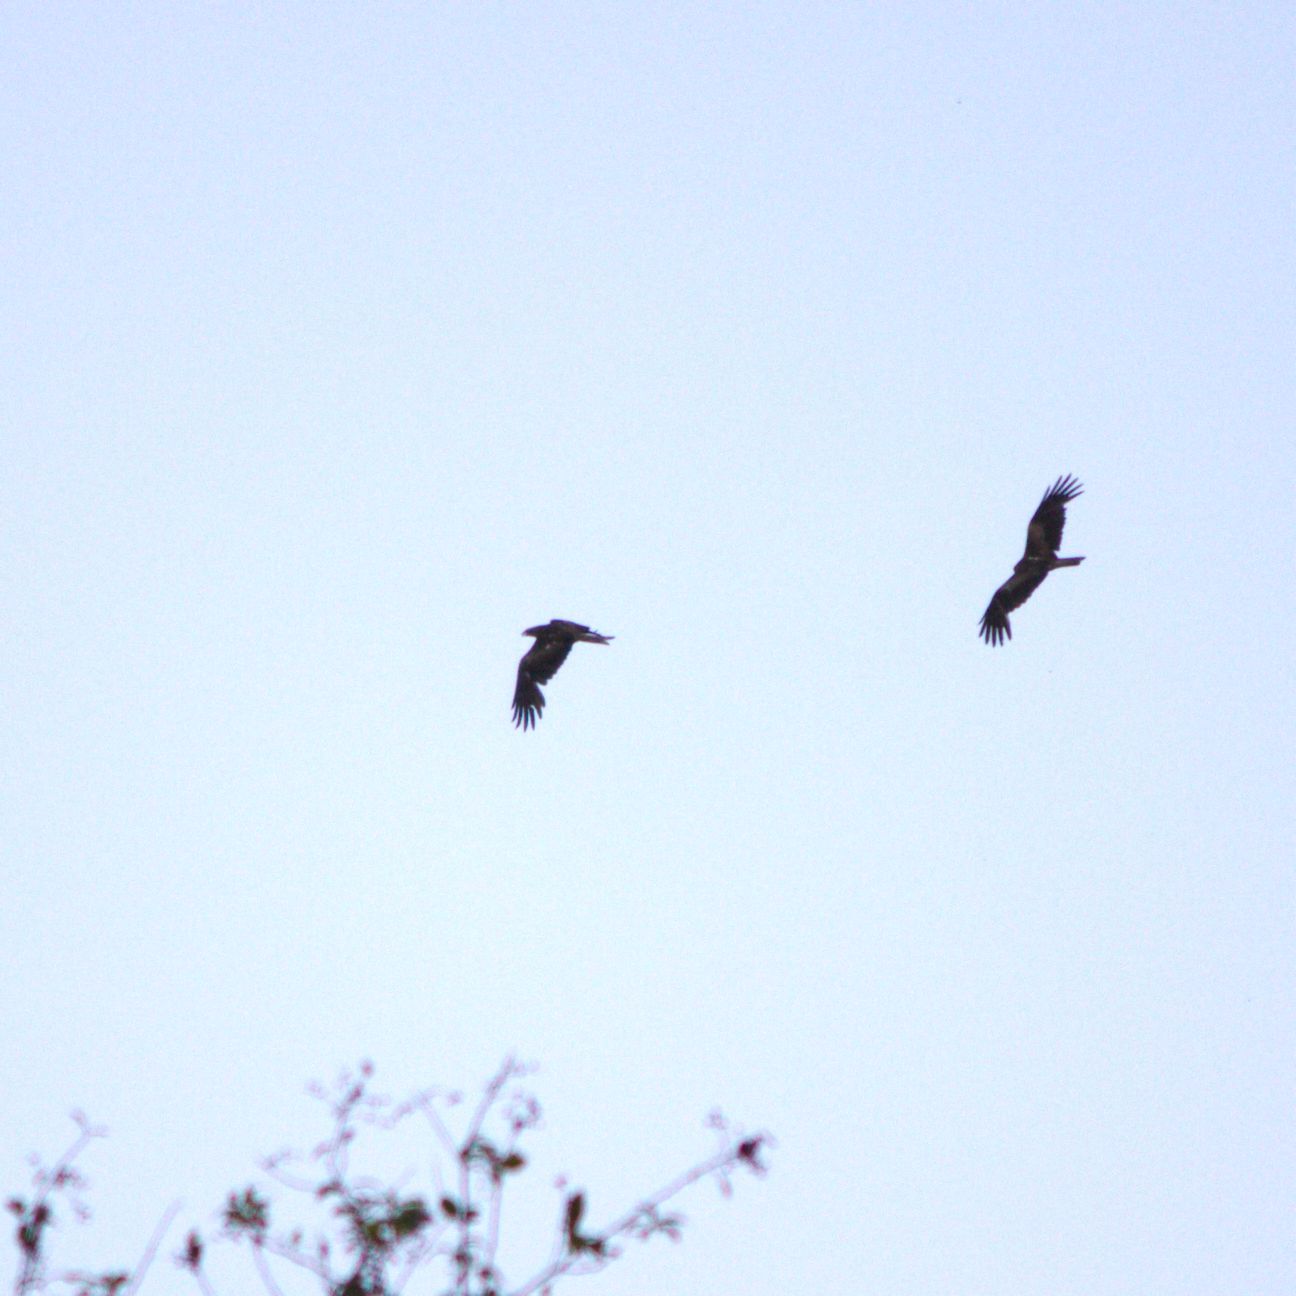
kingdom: Animalia
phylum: Chordata
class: Aves
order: Accipitriformes
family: Accipitridae
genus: Milvus
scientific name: Milvus migrans
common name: Black kite
